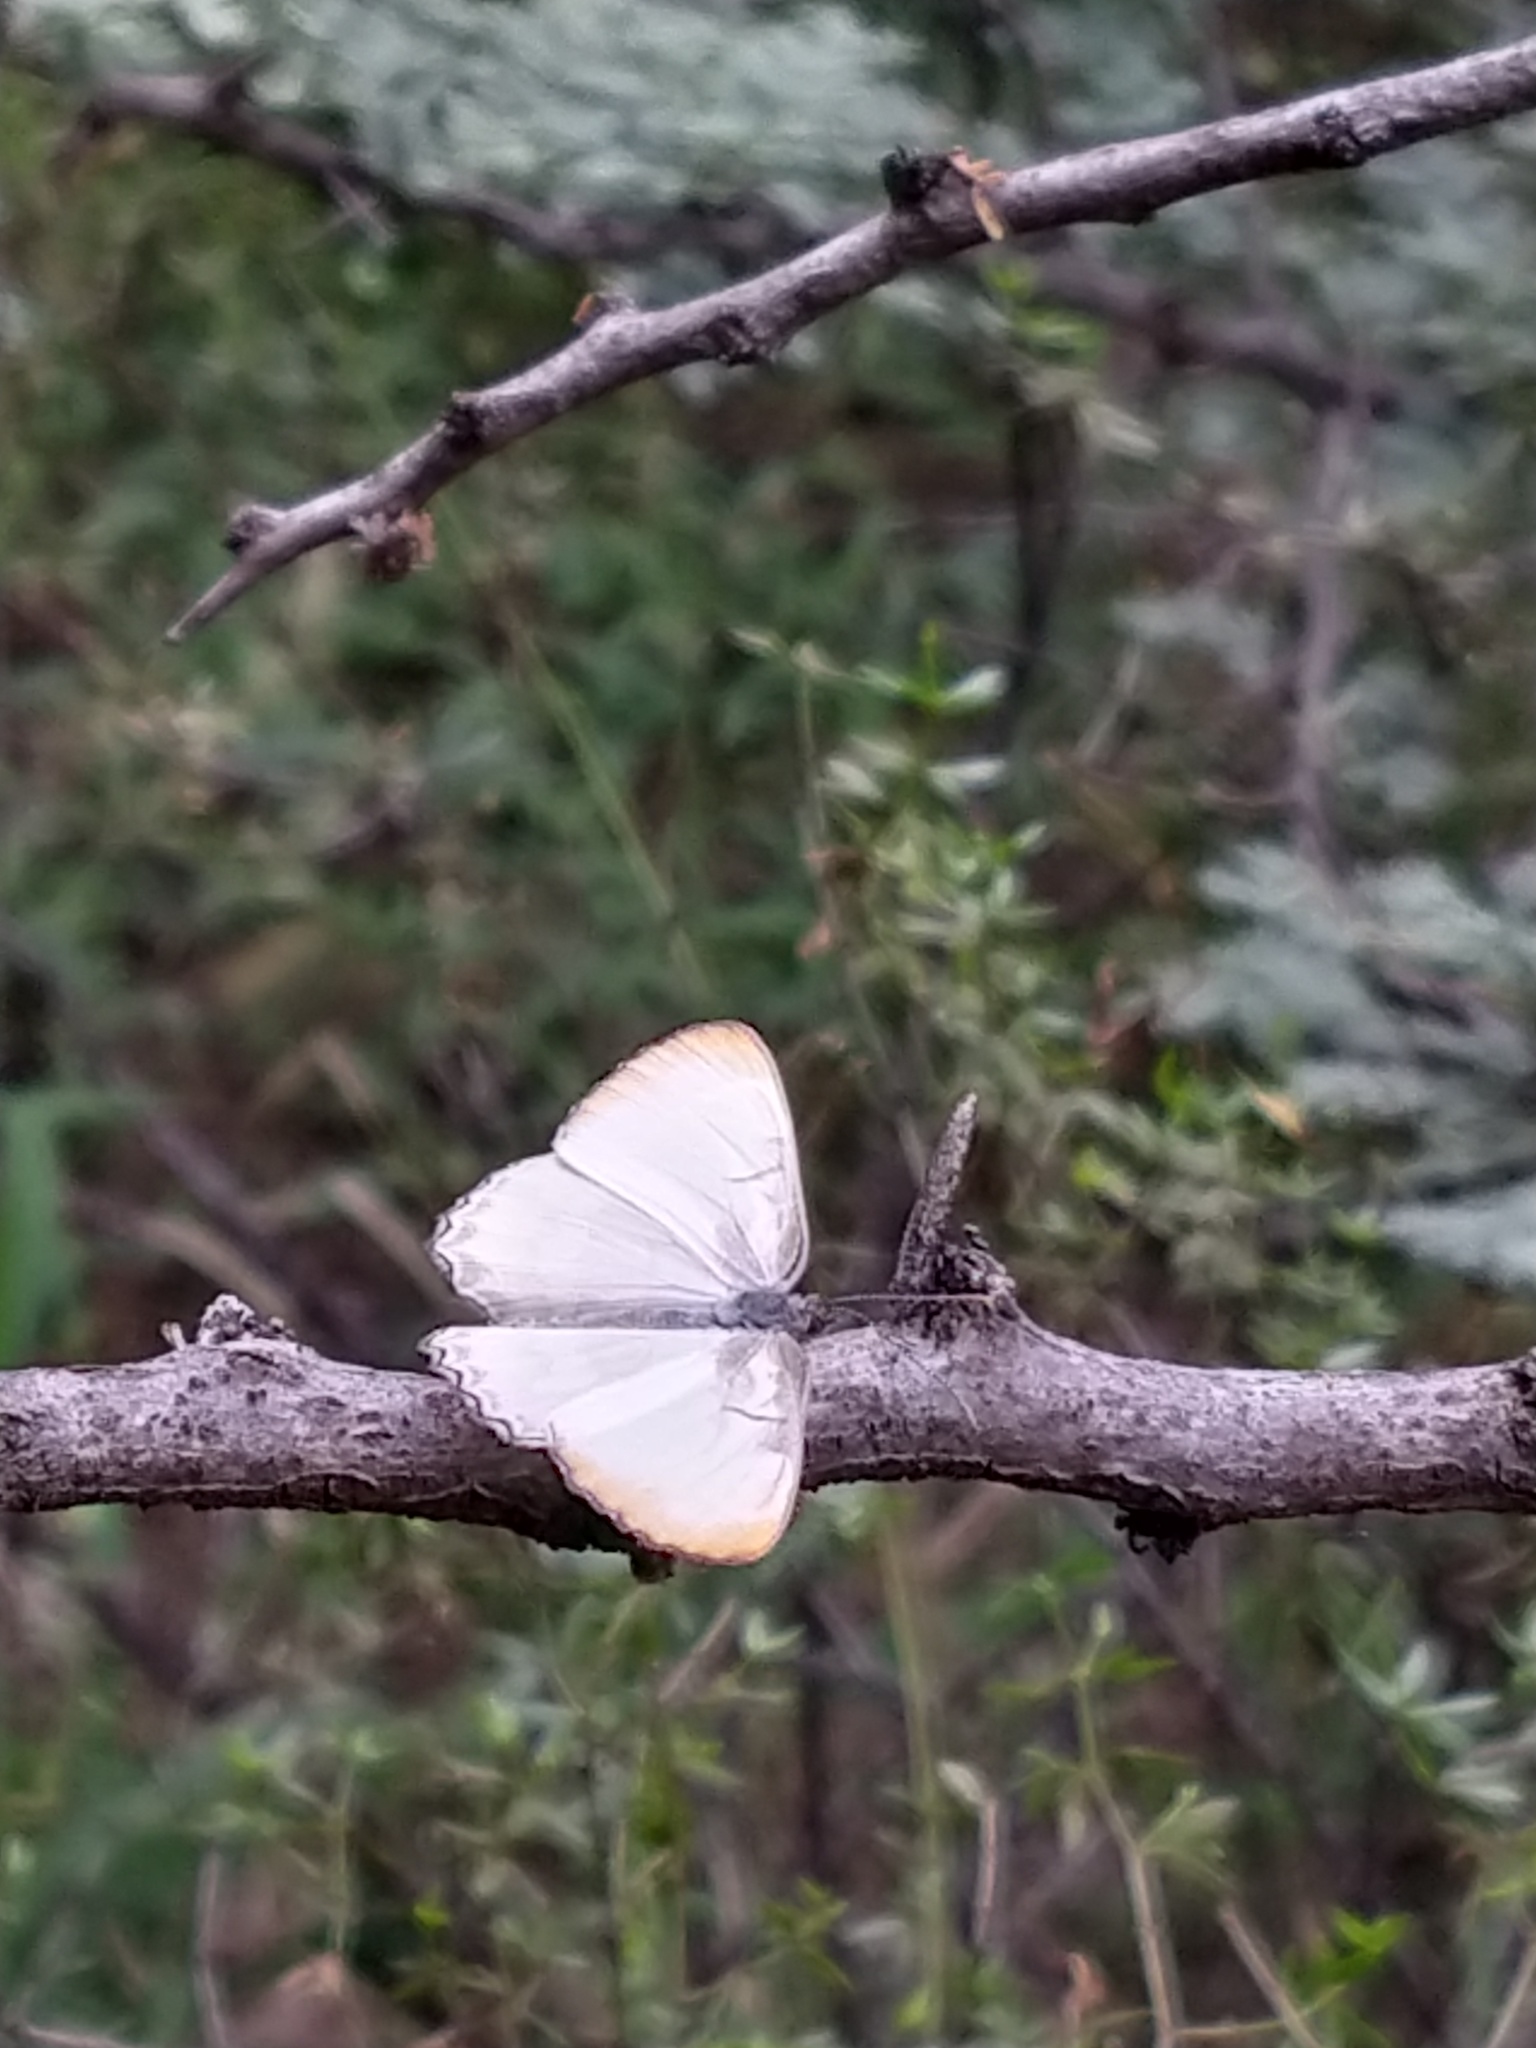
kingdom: Animalia
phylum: Arthropoda
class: Insecta
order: Lepidoptera
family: Nymphalidae
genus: Mestra
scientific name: Mestra hersilia
